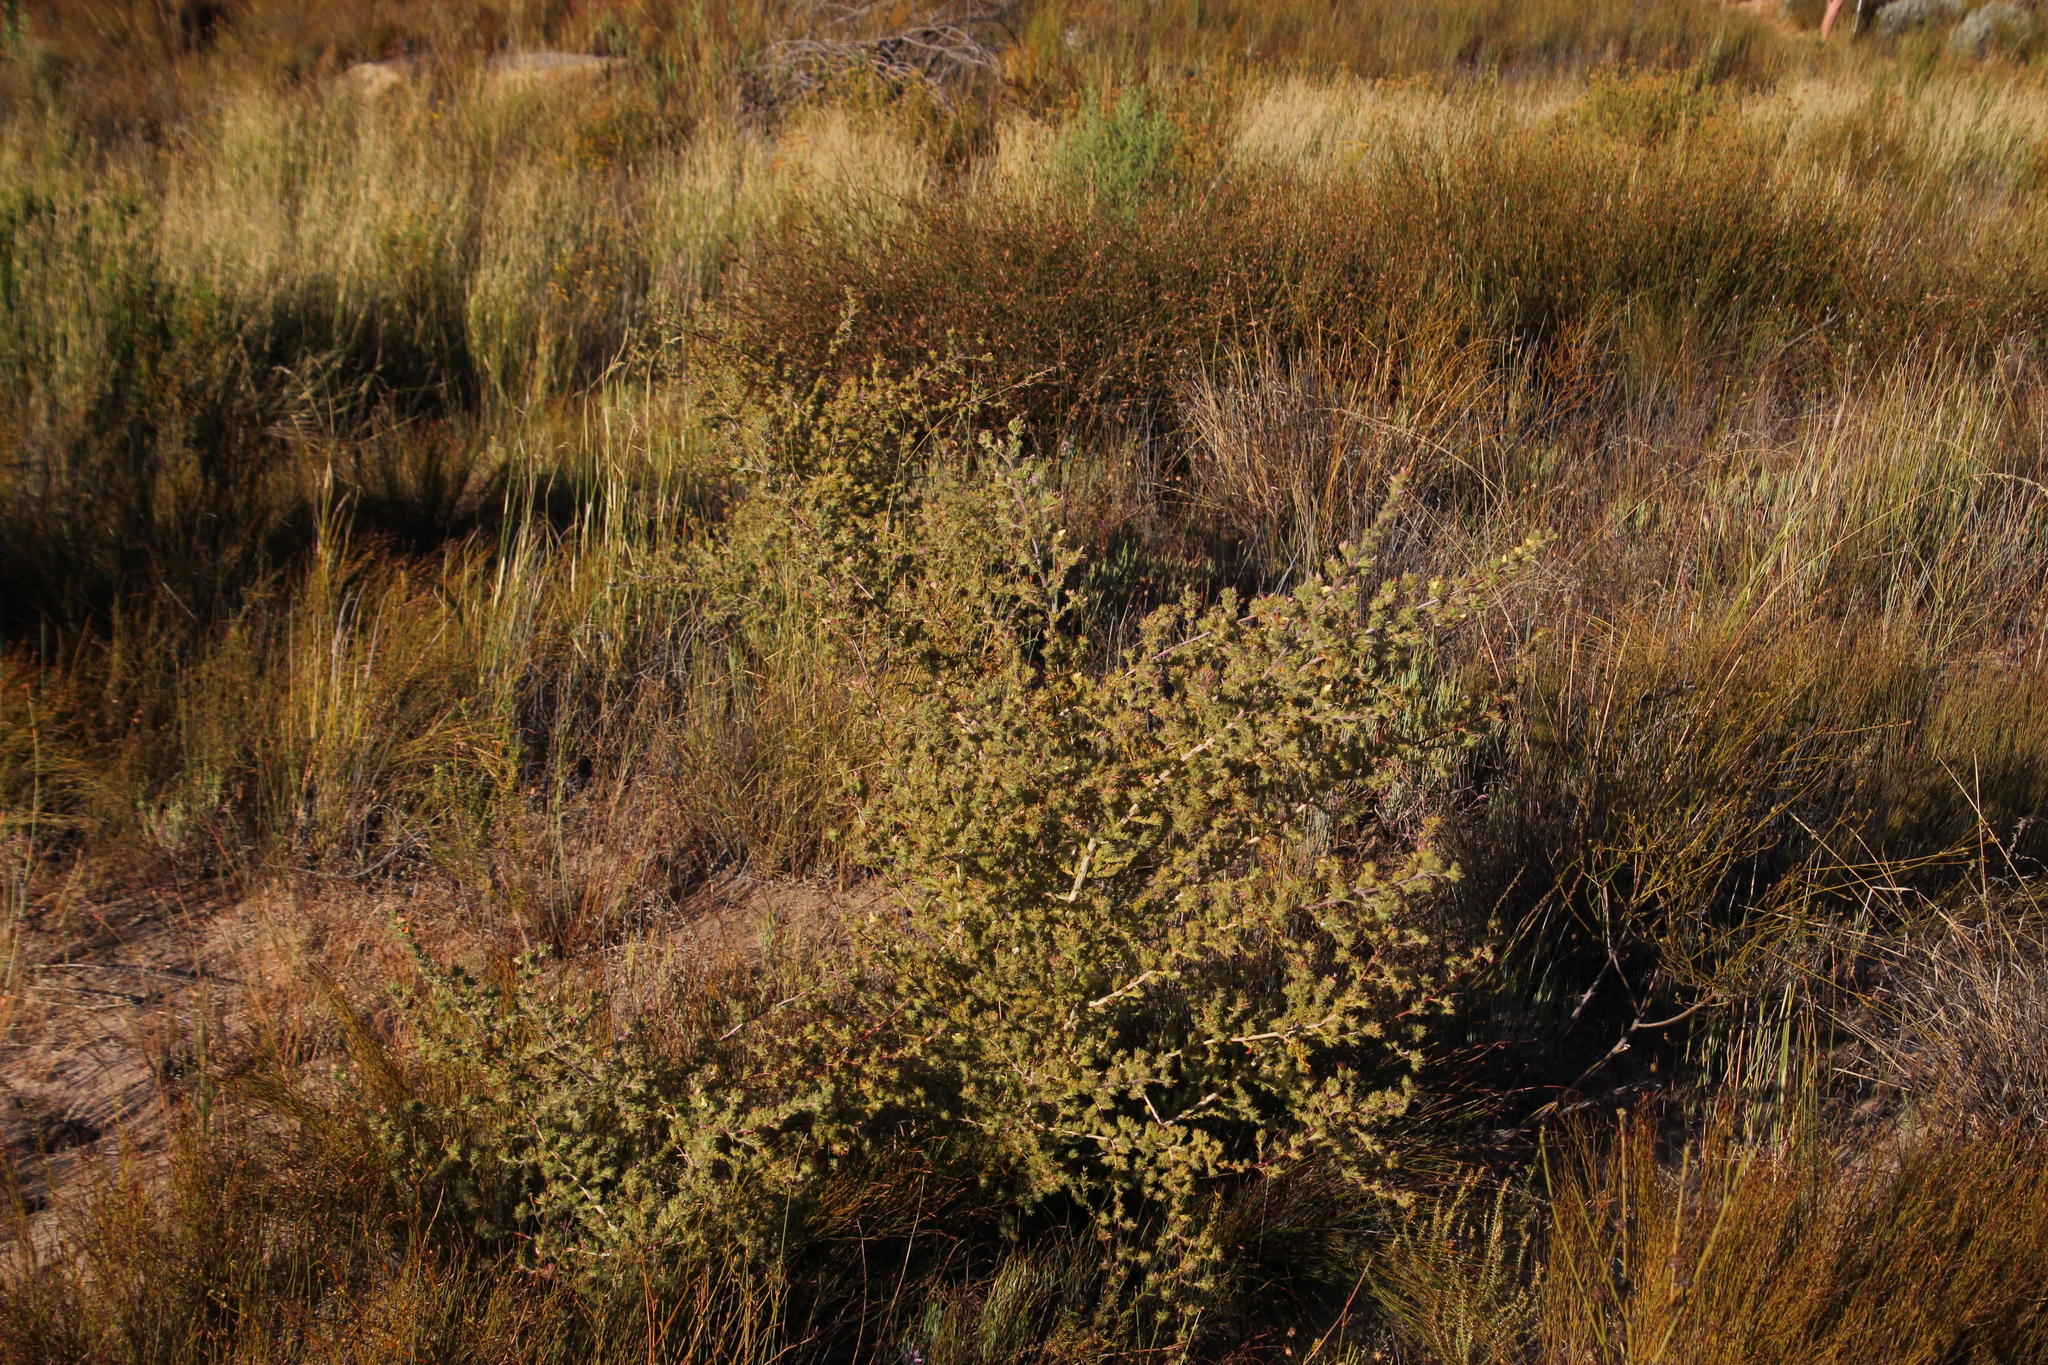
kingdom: Plantae
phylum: Tracheophyta
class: Magnoliopsida
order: Fabales
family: Fabaceae
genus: Aspalathus
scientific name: Aspalathus spicata
